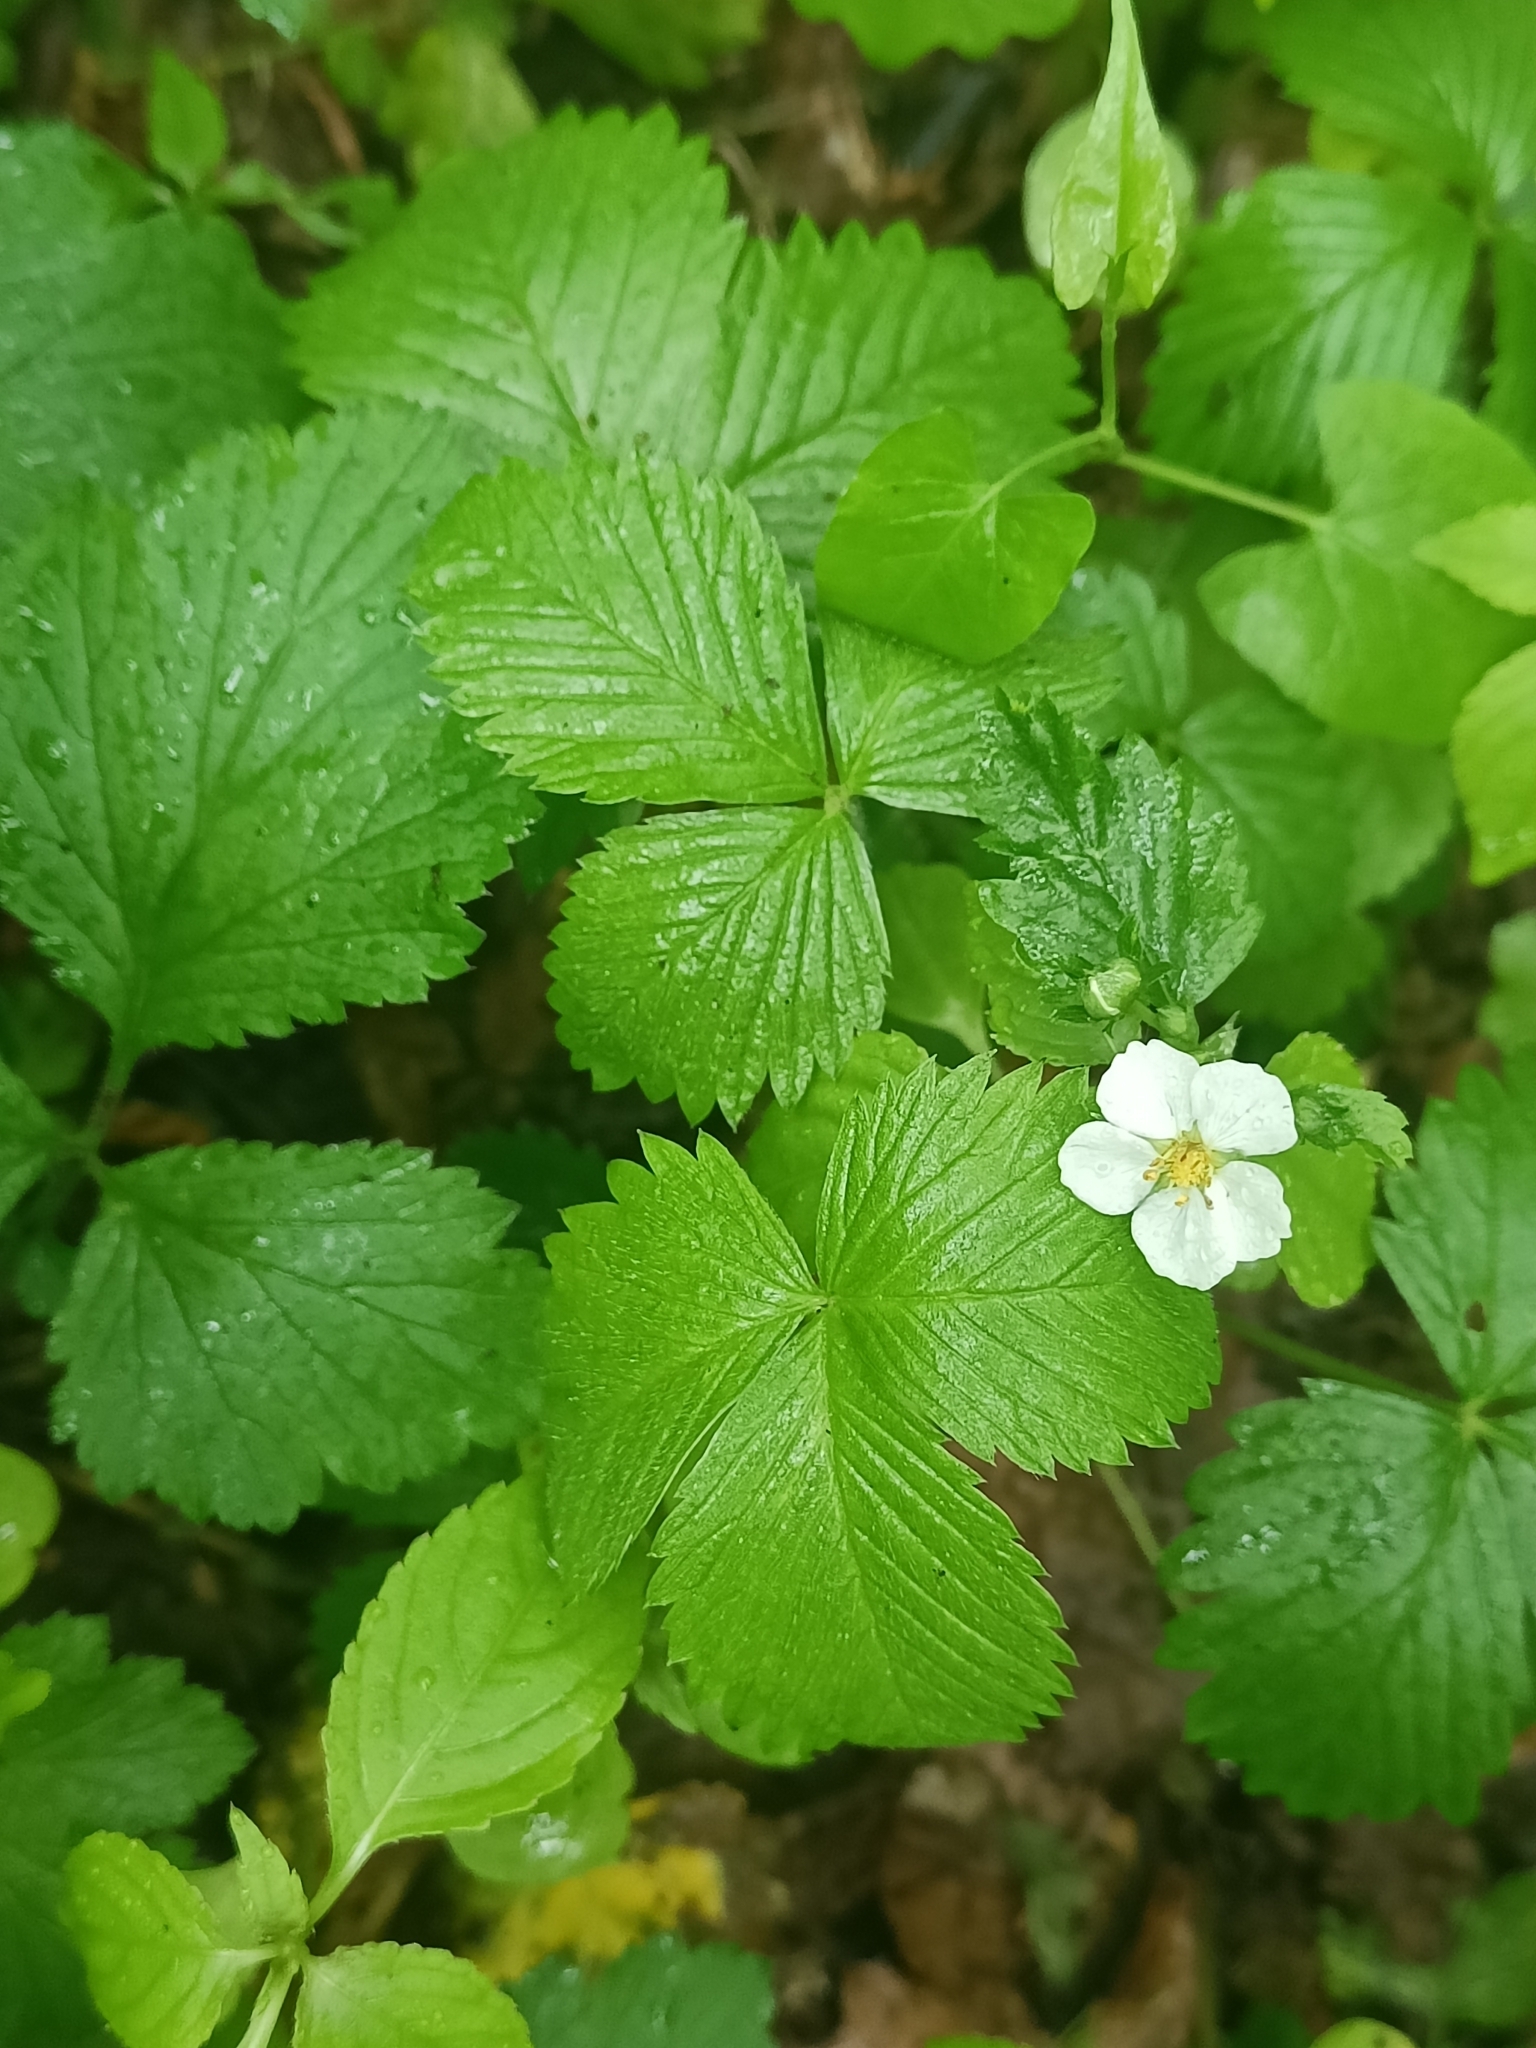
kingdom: Plantae
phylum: Tracheophyta
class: Magnoliopsida
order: Rosales
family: Rosaceae
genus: Fragaria
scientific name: Fragaria vesca
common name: Wild strawberry
